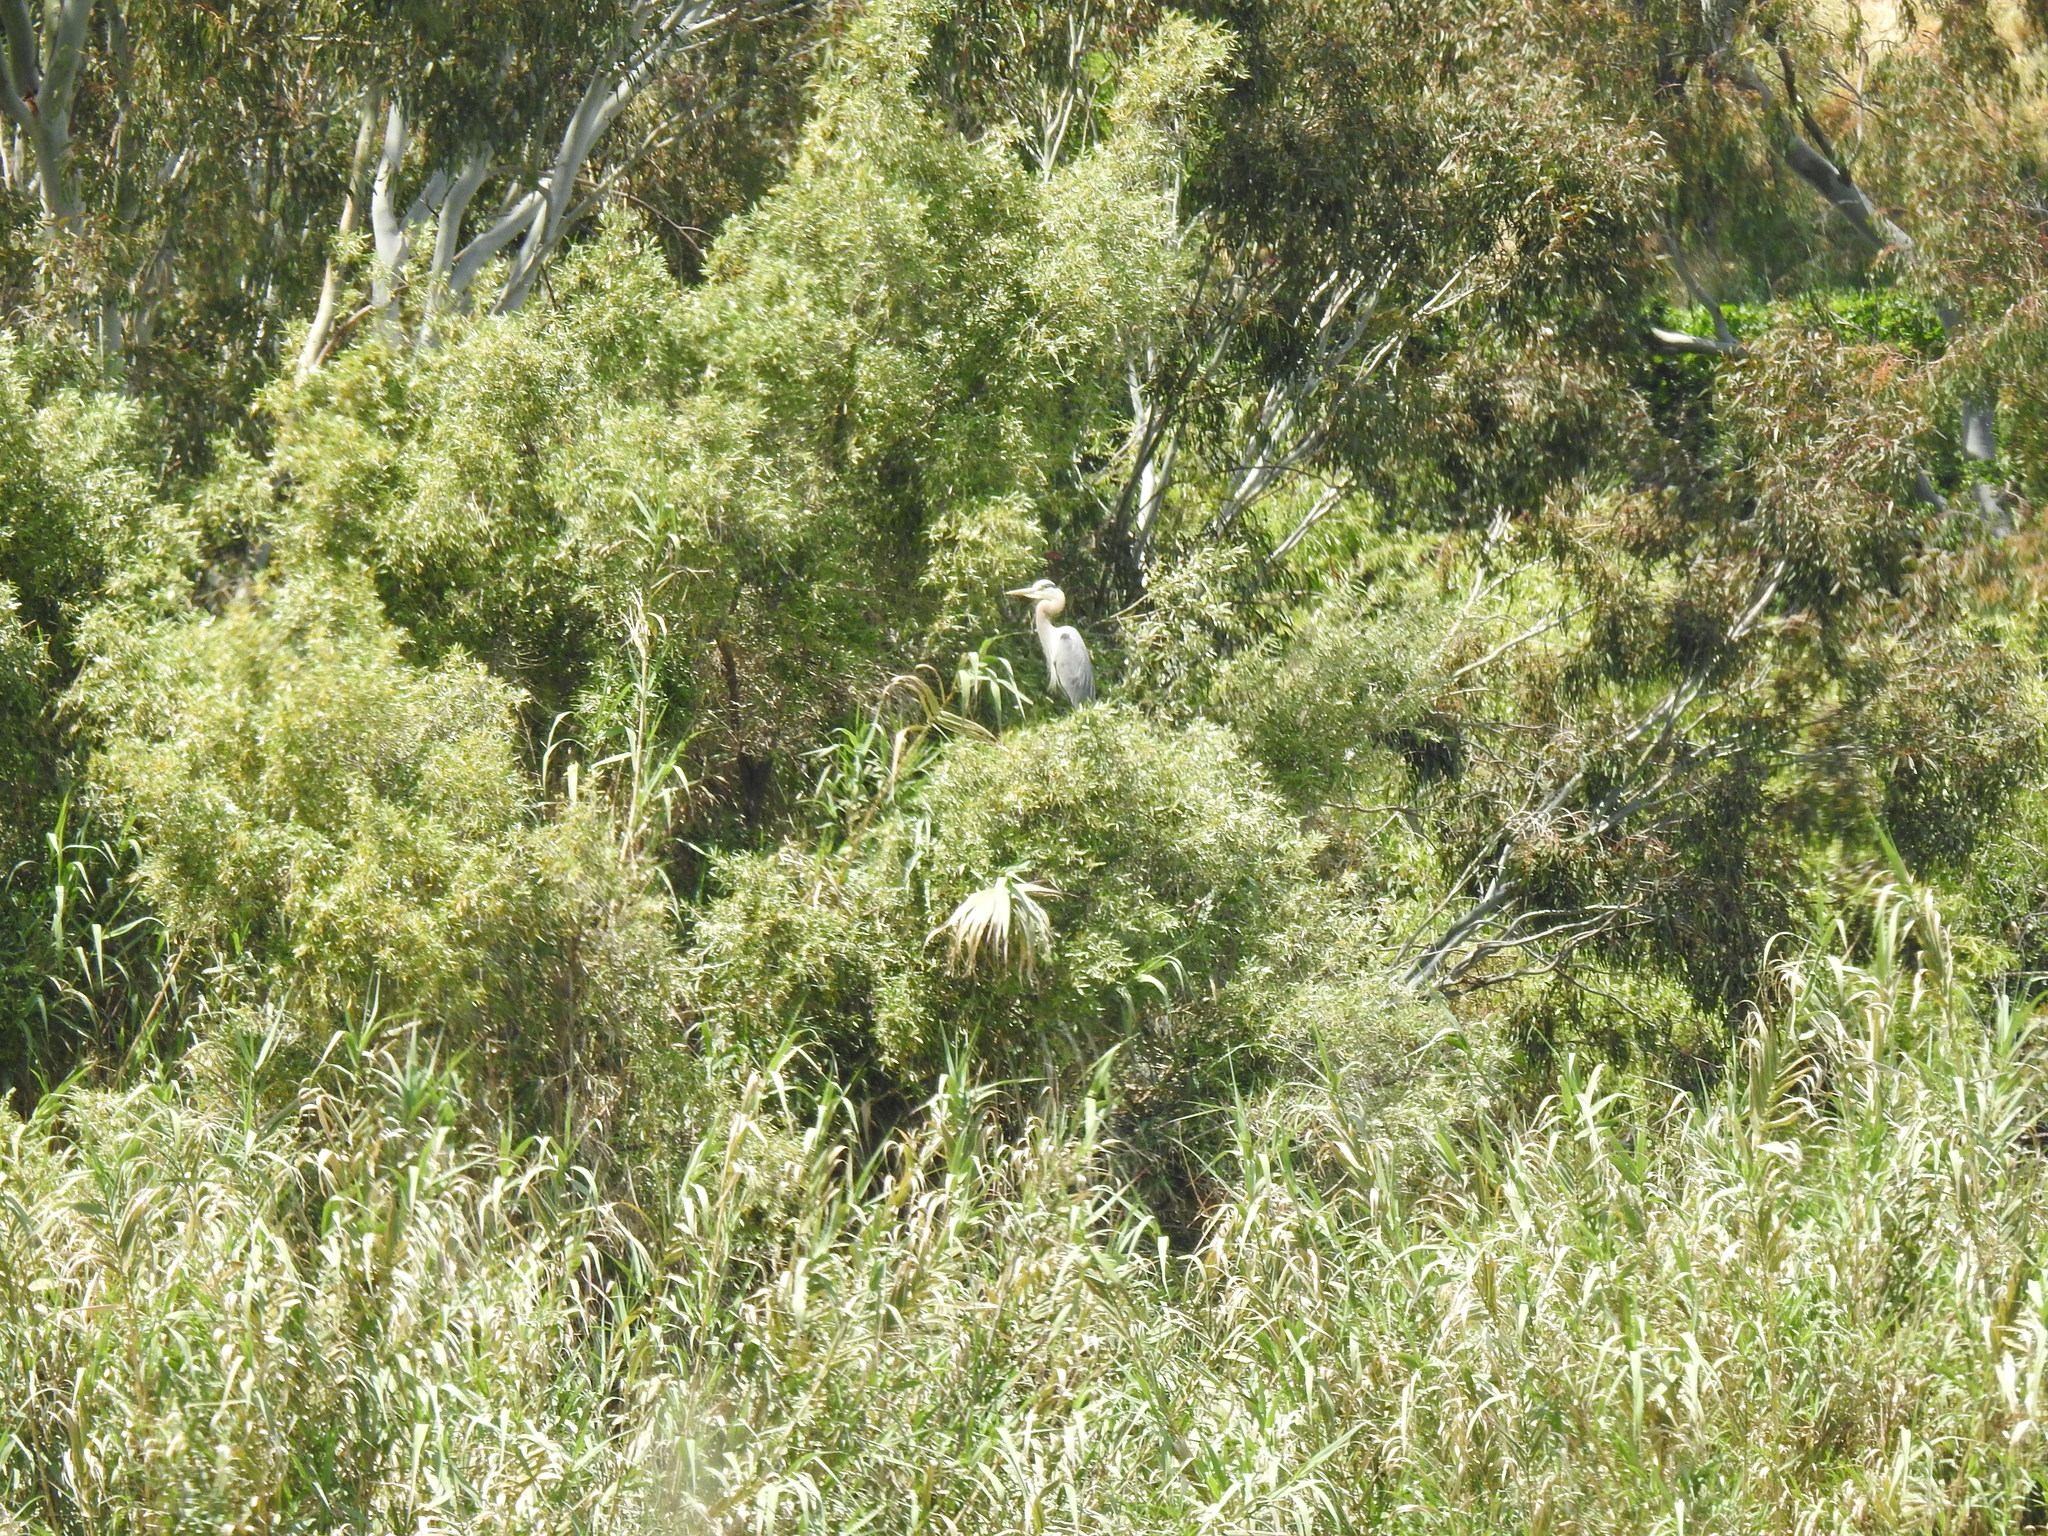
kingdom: Animalia
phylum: Chordata
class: Aves
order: Pelecaniformes
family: Ardeidae
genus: Ardea
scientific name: Ardea herodias
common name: Great blue heron
